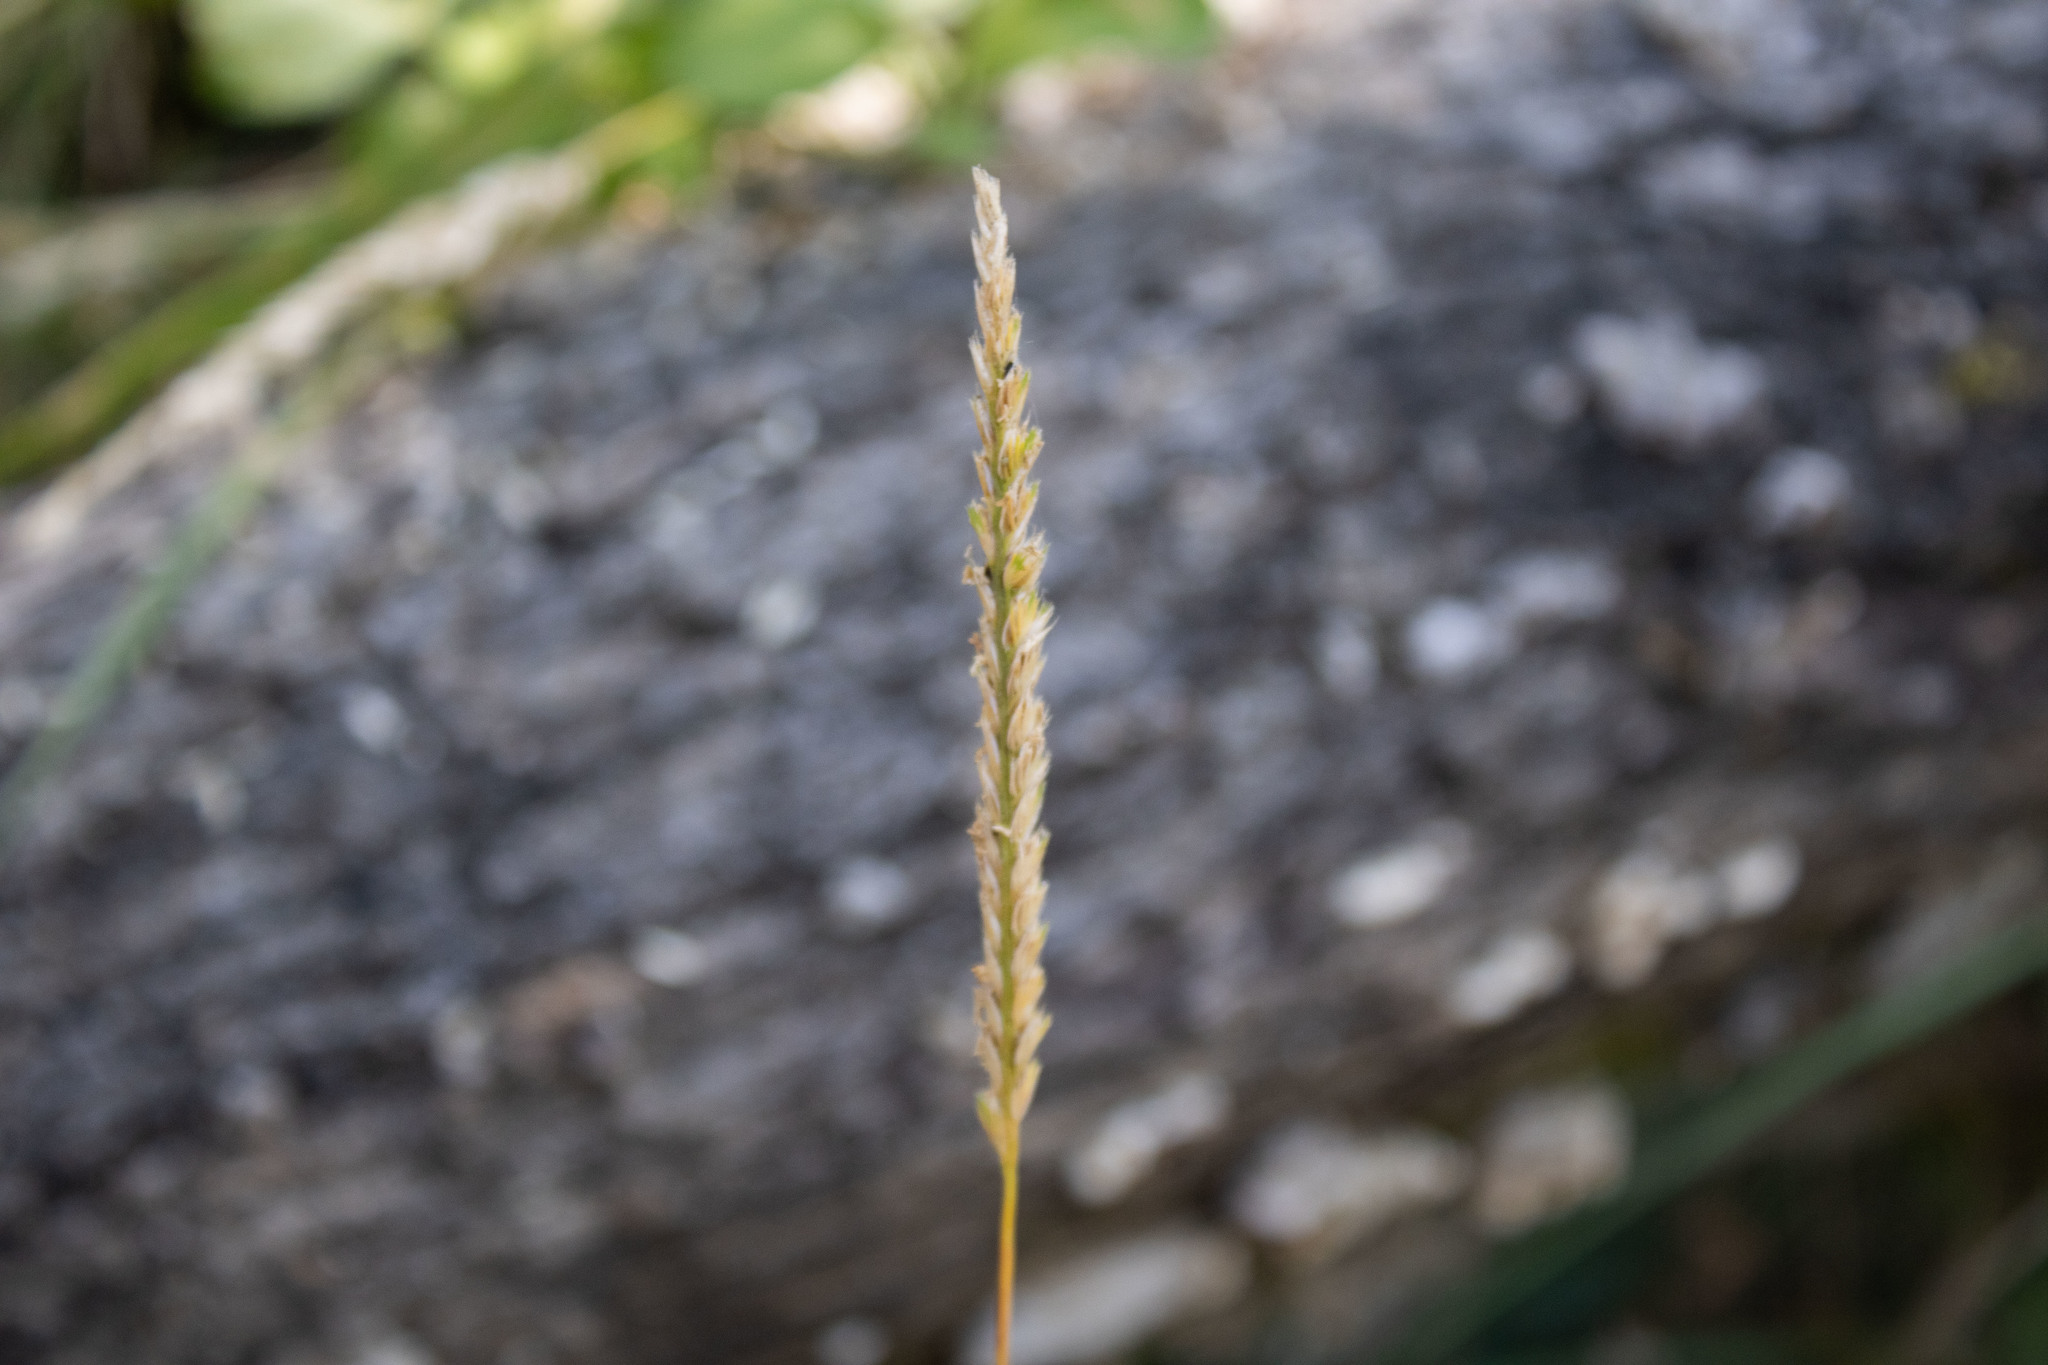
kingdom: Plantae
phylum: Tracheophyta
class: Liliopsida
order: Poales
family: Poaceae
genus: Cynosurus
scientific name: Cynosurus cristatus
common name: Crested dog's-tail
